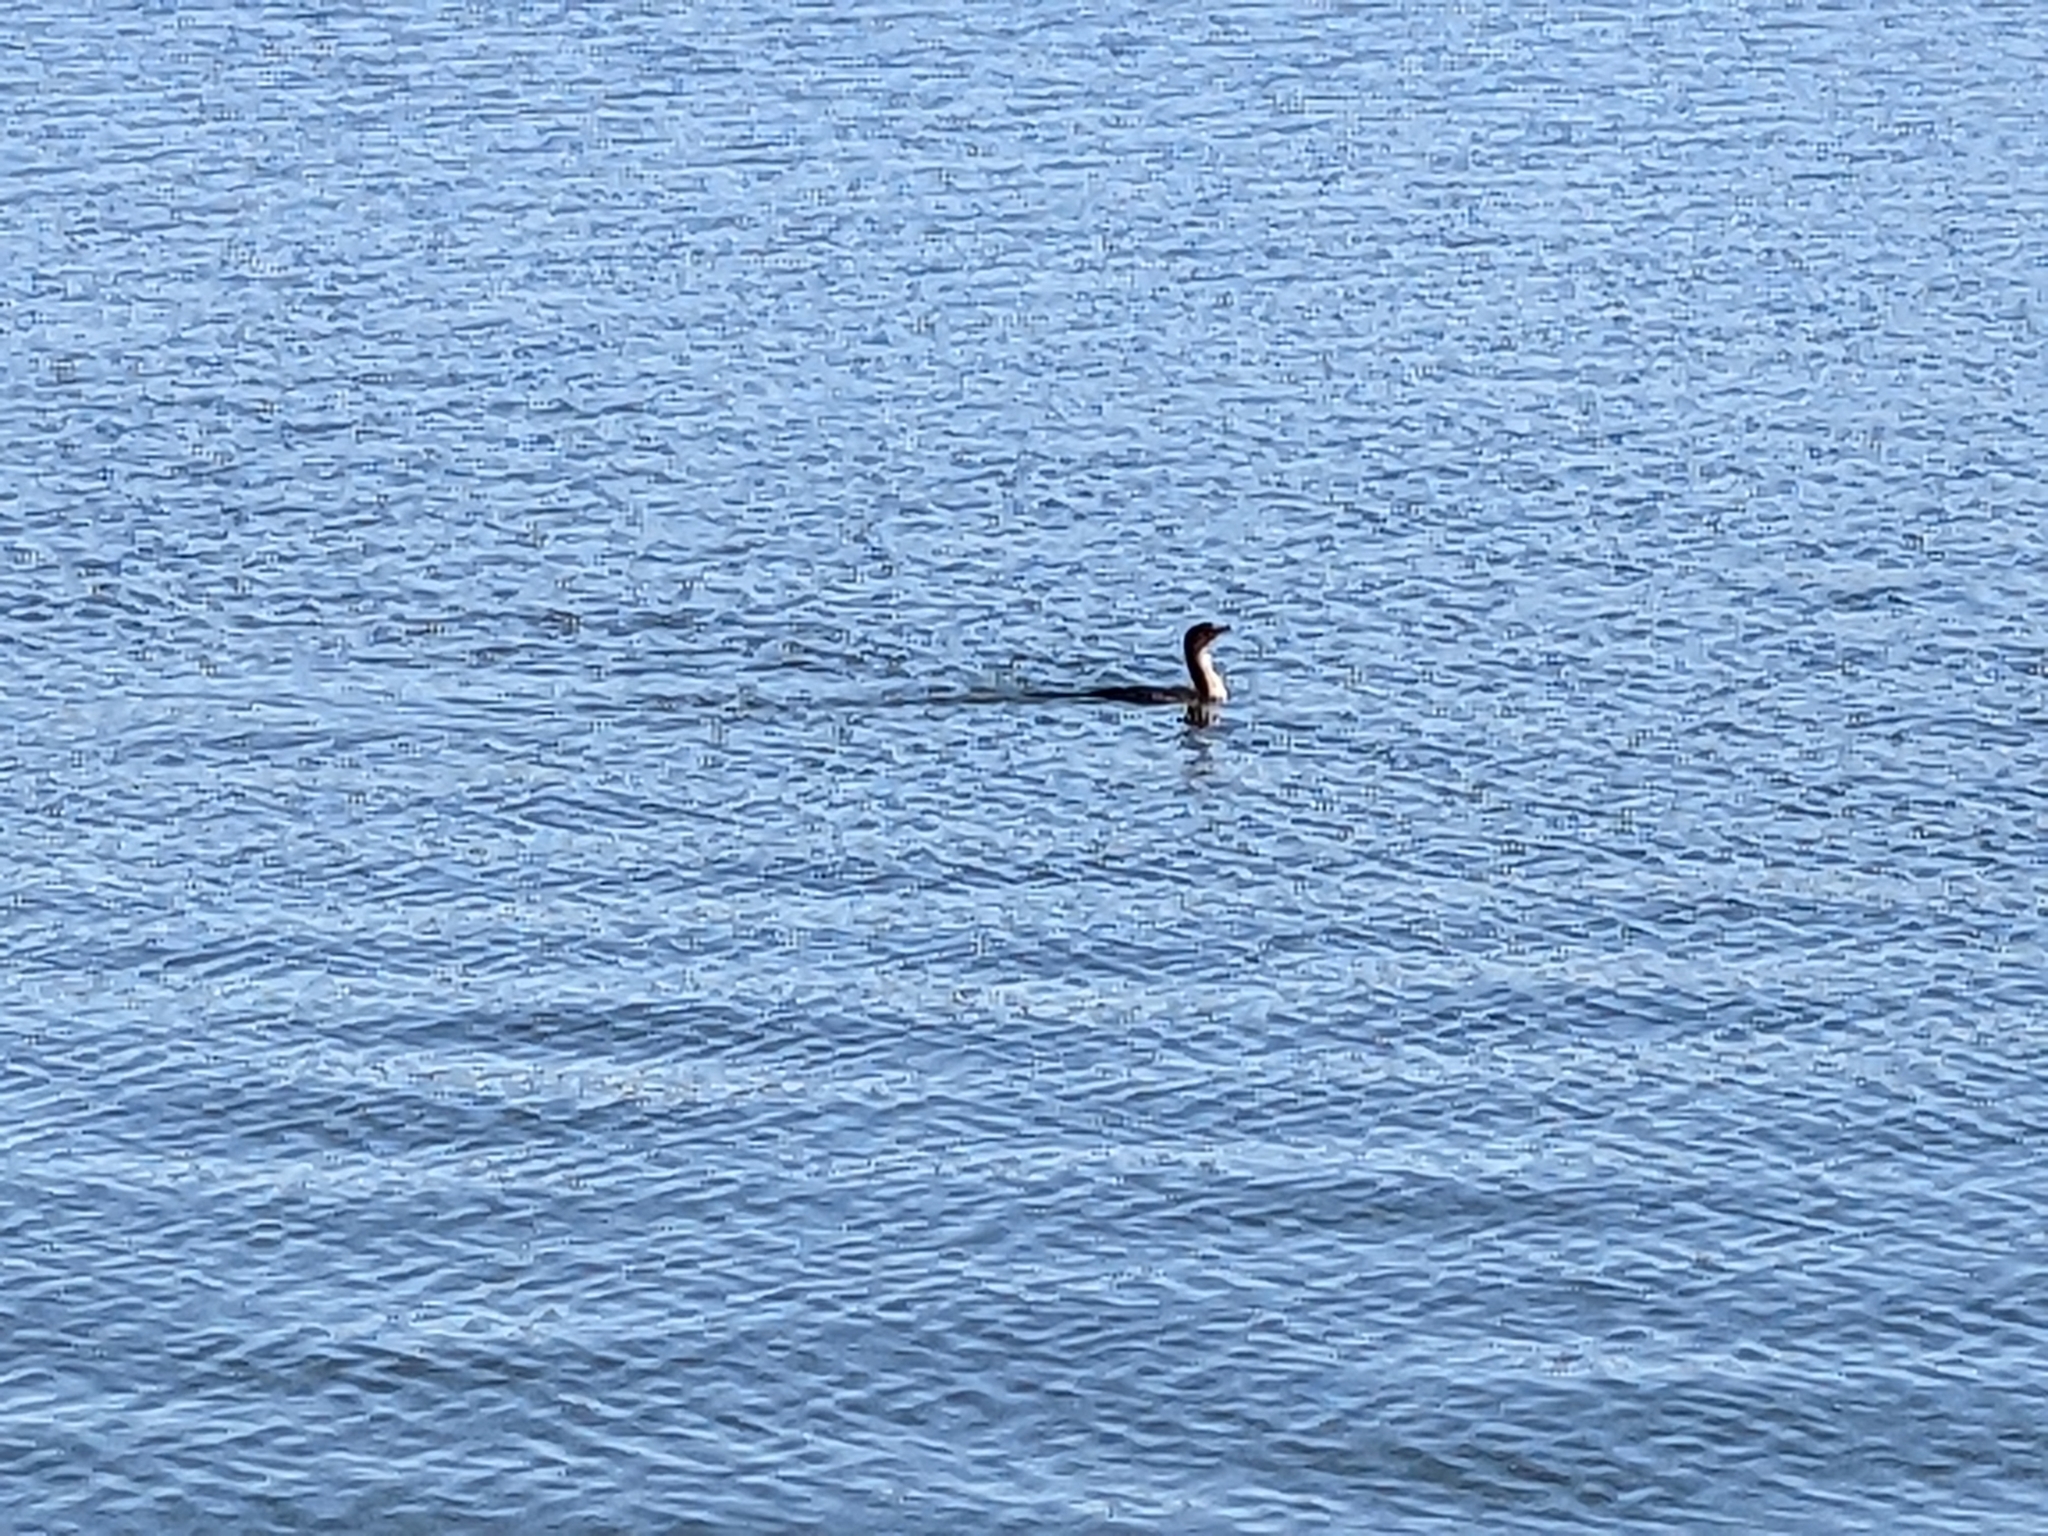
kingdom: Animalia
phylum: Chordata
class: Aves
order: Suliformes
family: Phalacrocoracidae
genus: Phalacrocorax
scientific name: Phalacrocorax auritus
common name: Double-crested cormorant
